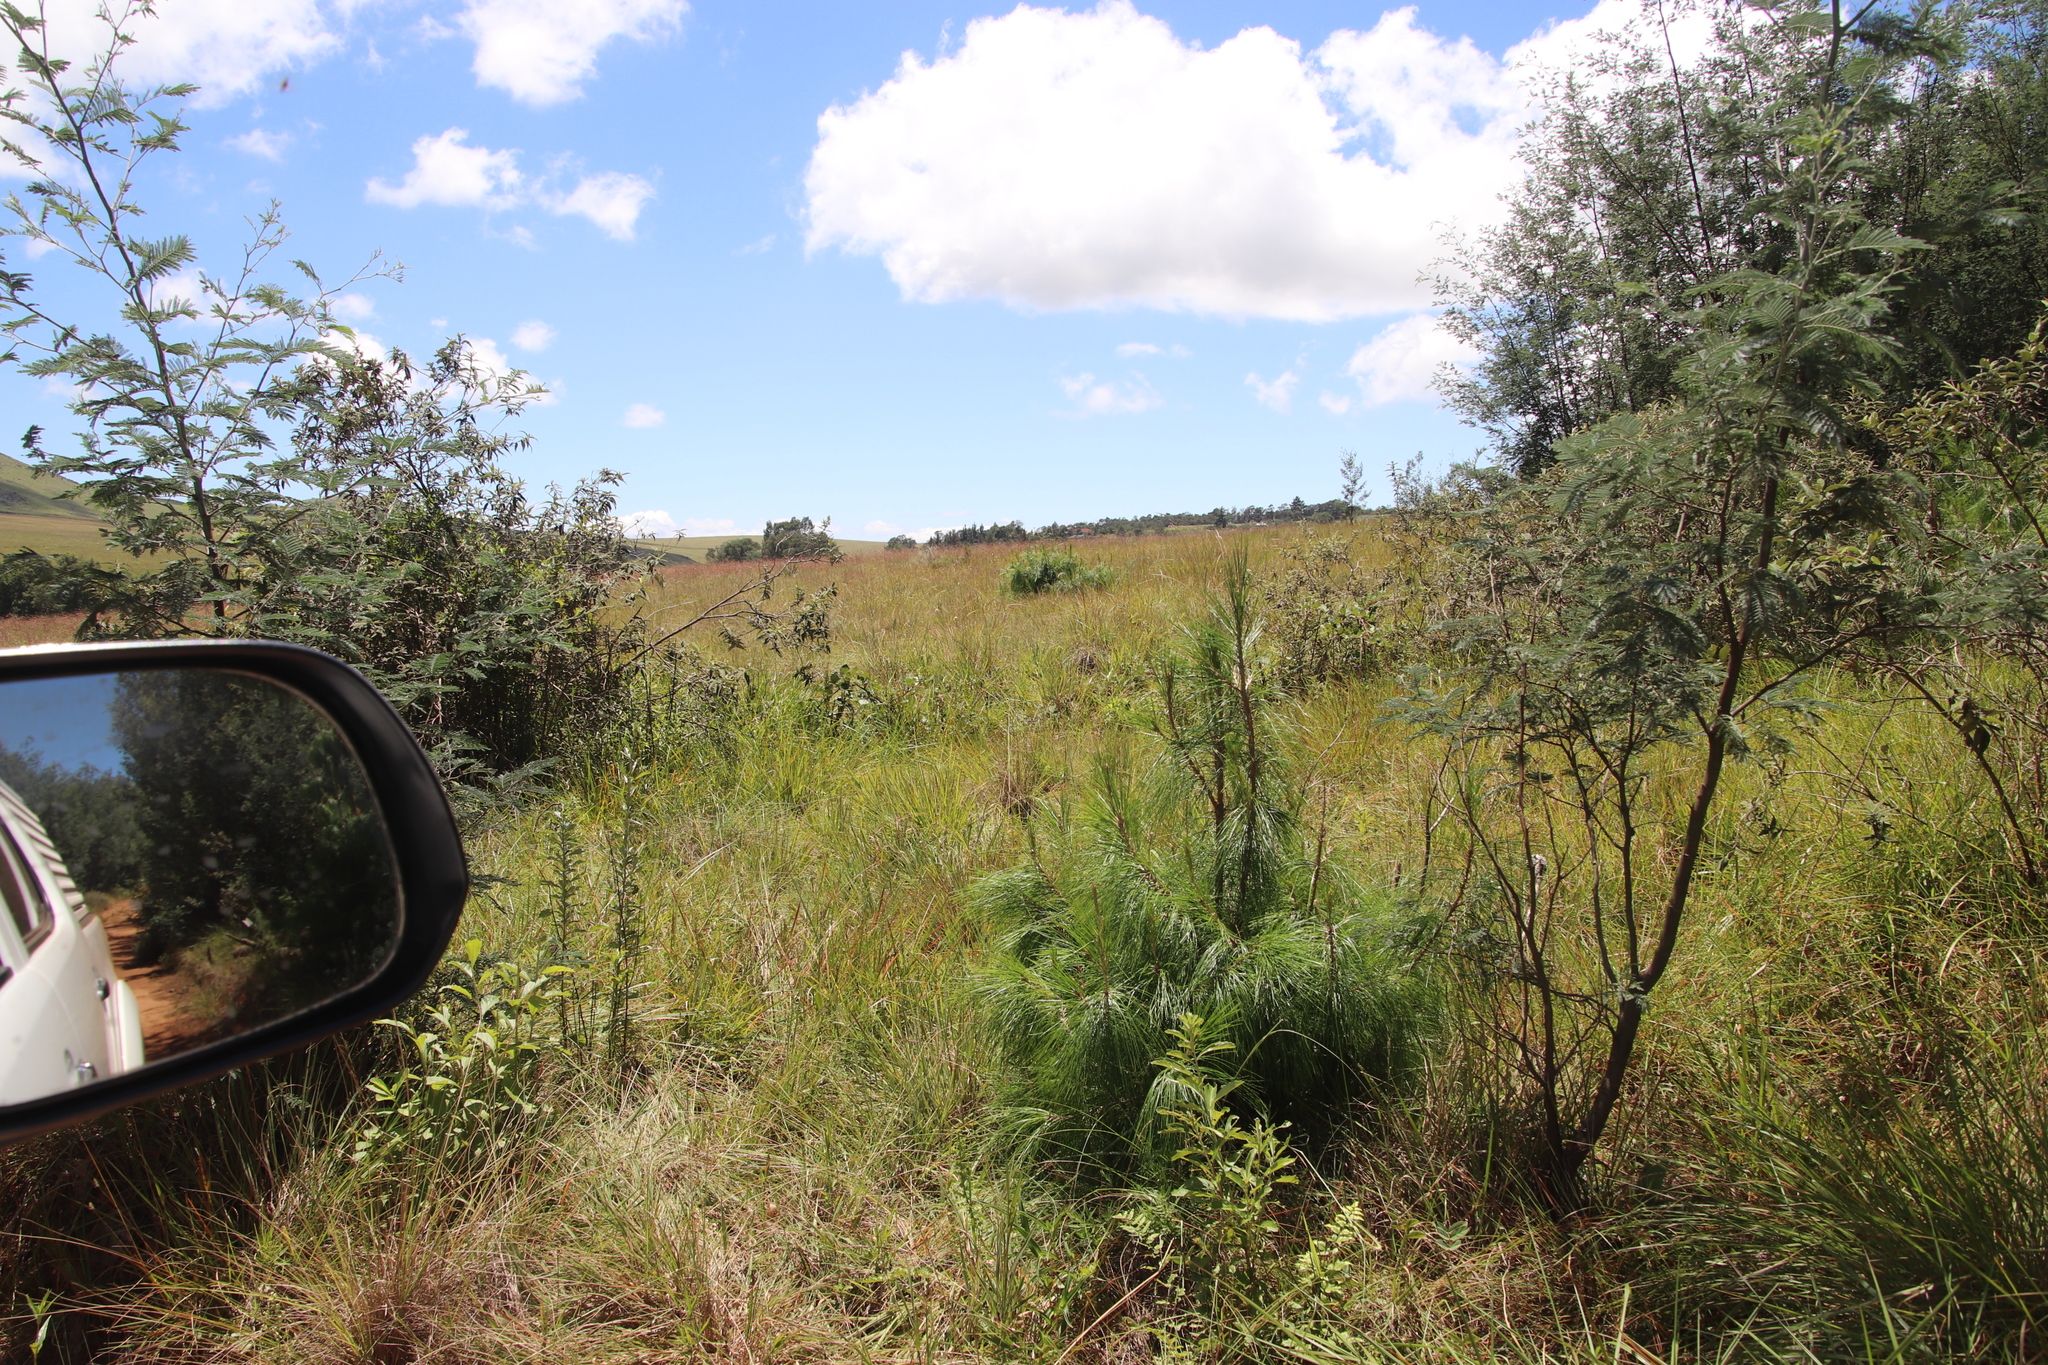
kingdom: Plantae
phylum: Tracheophyta
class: Pinopsida
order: Pinales
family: Pinaceae
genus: Pinus
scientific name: Pinus patula
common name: Mexican weeping pine
